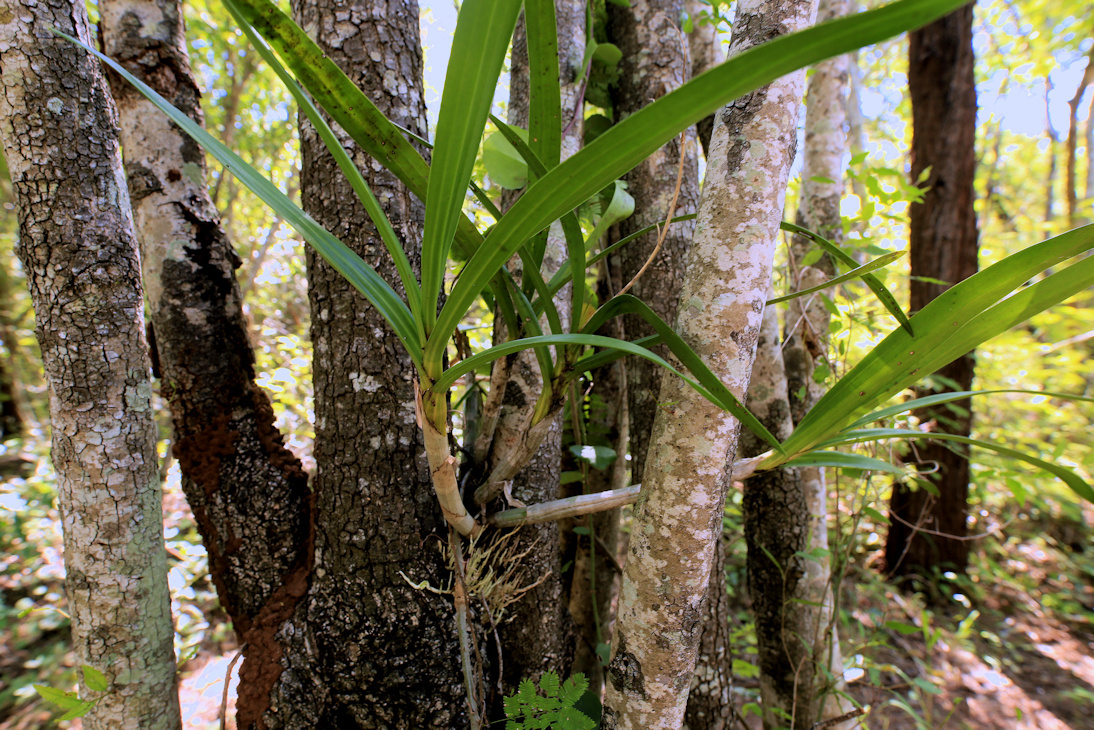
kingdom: Plantae
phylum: Tracheophyta
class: Liliopsida
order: Asparagales
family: Orchidaceae
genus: Ansellia
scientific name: Ansellia africana
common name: African ansellia
